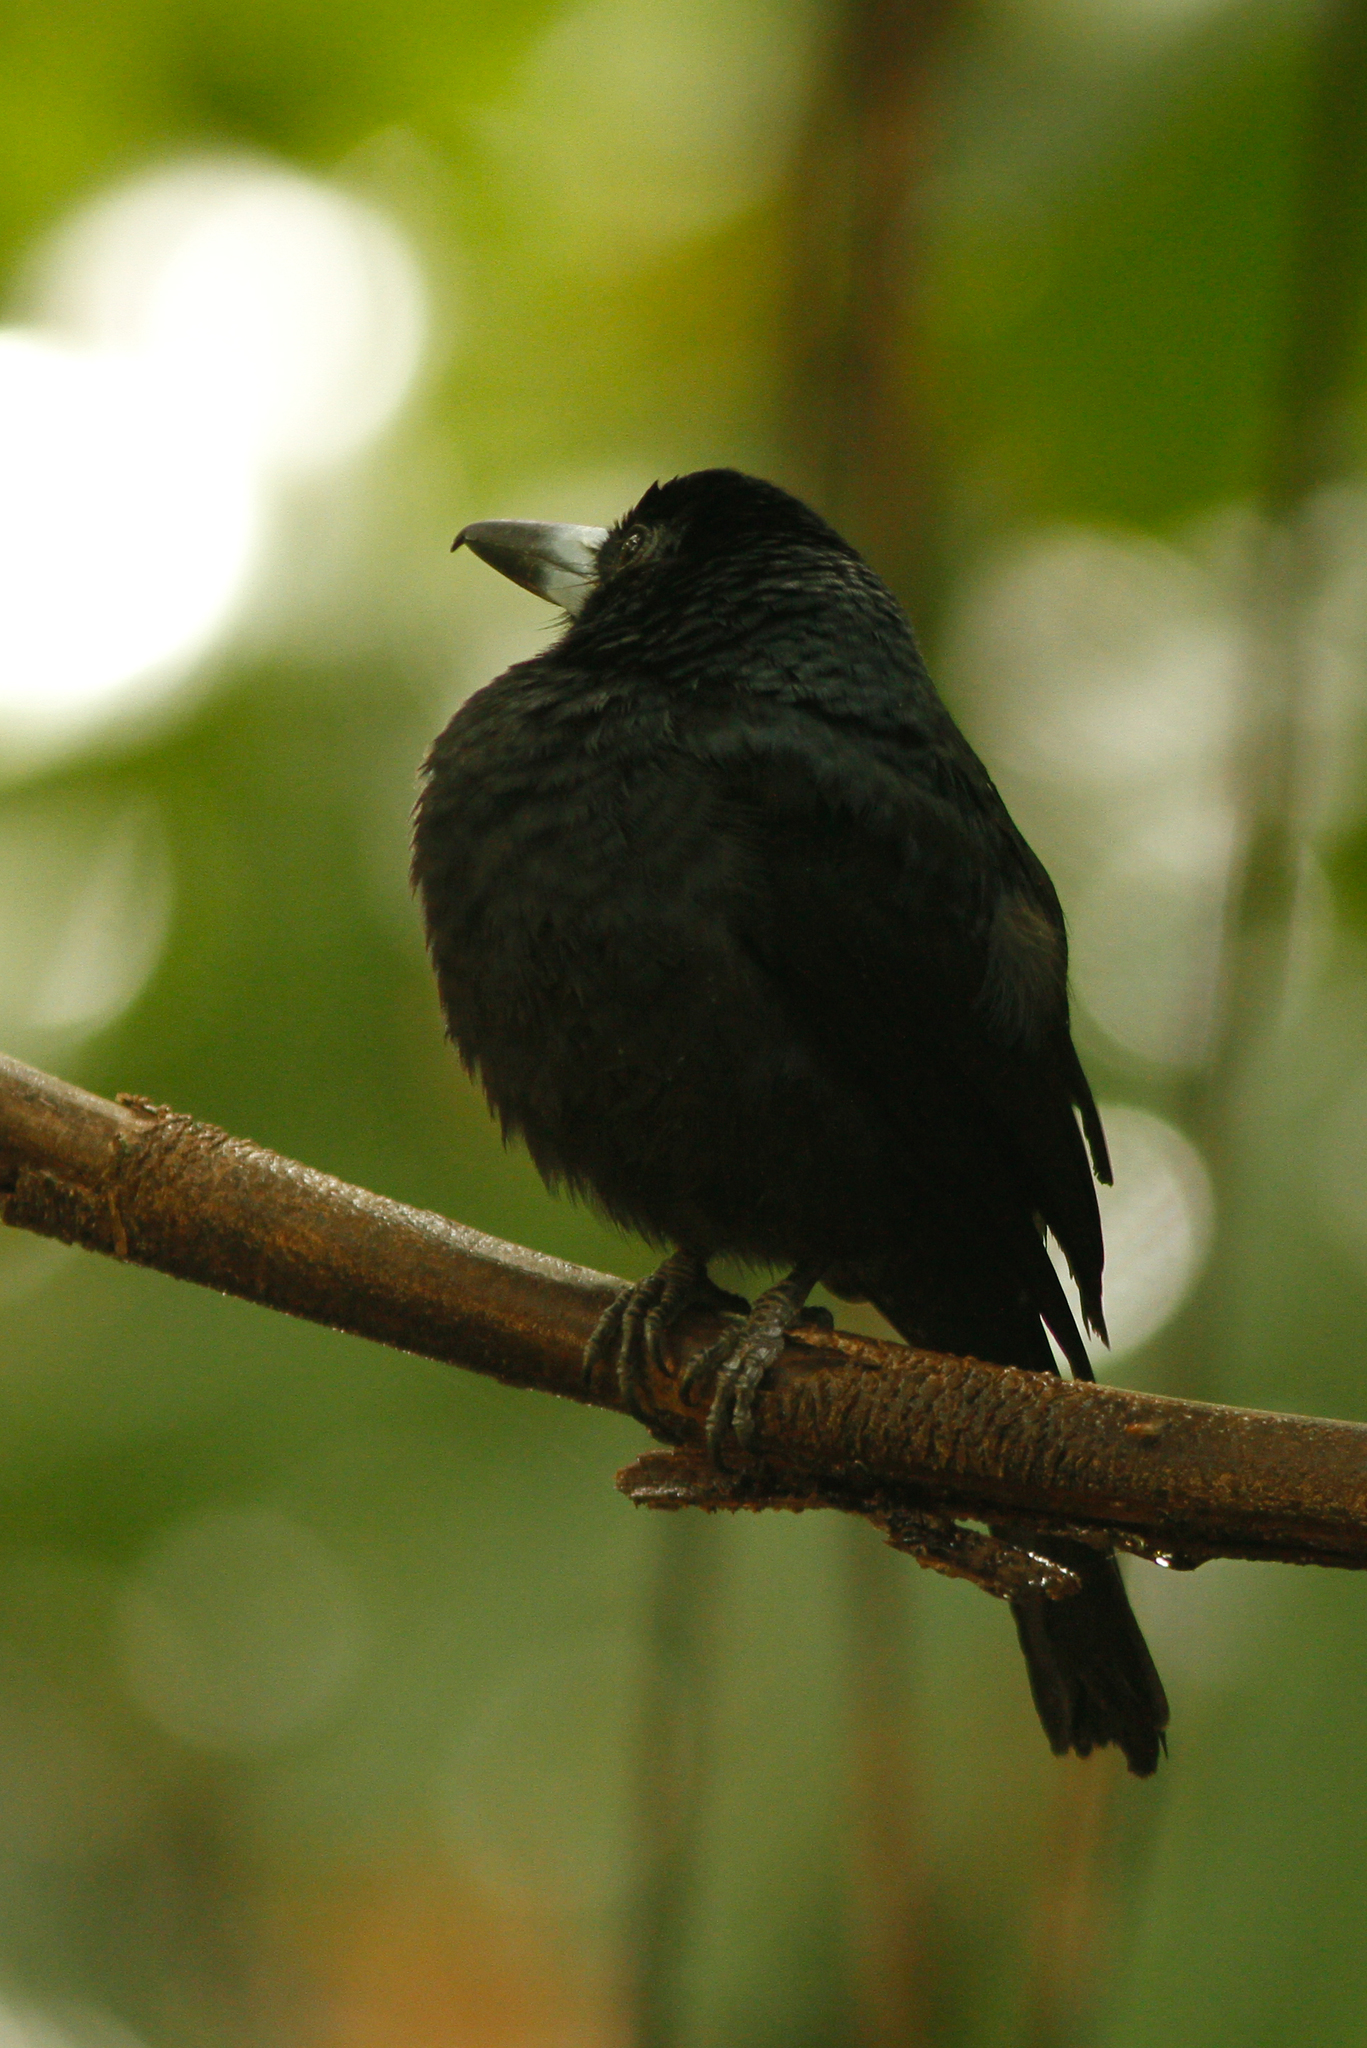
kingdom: Animalia
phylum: Chordata
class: Aves
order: Passeriformes
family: Artamidae
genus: Melloria
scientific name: Melloria quoyi
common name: Black butcherbird
